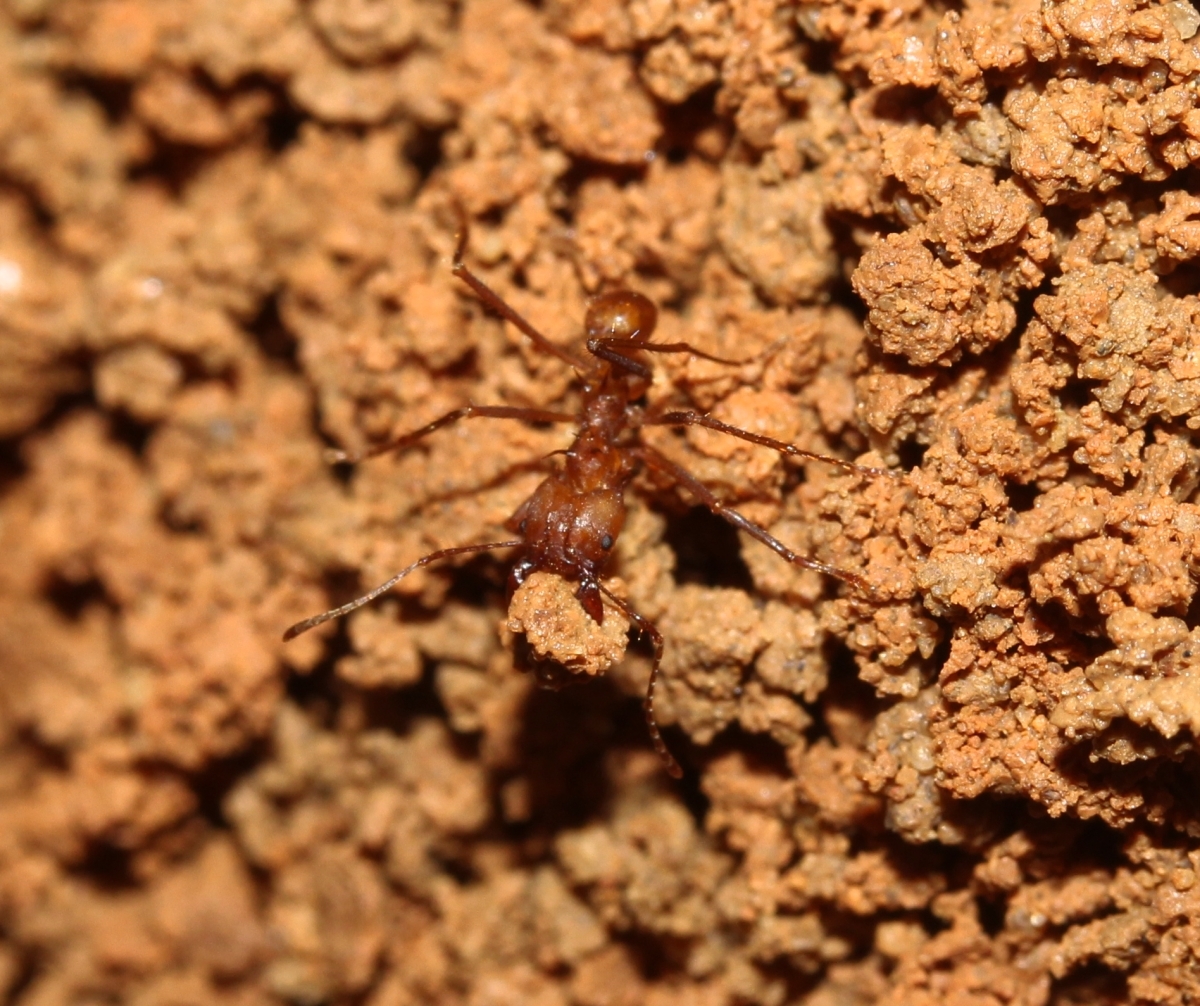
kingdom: Animalia
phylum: Arthropoda
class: Insecta
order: Hymenoptera
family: Formicidae
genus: Atta
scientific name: Atta cephalotes
